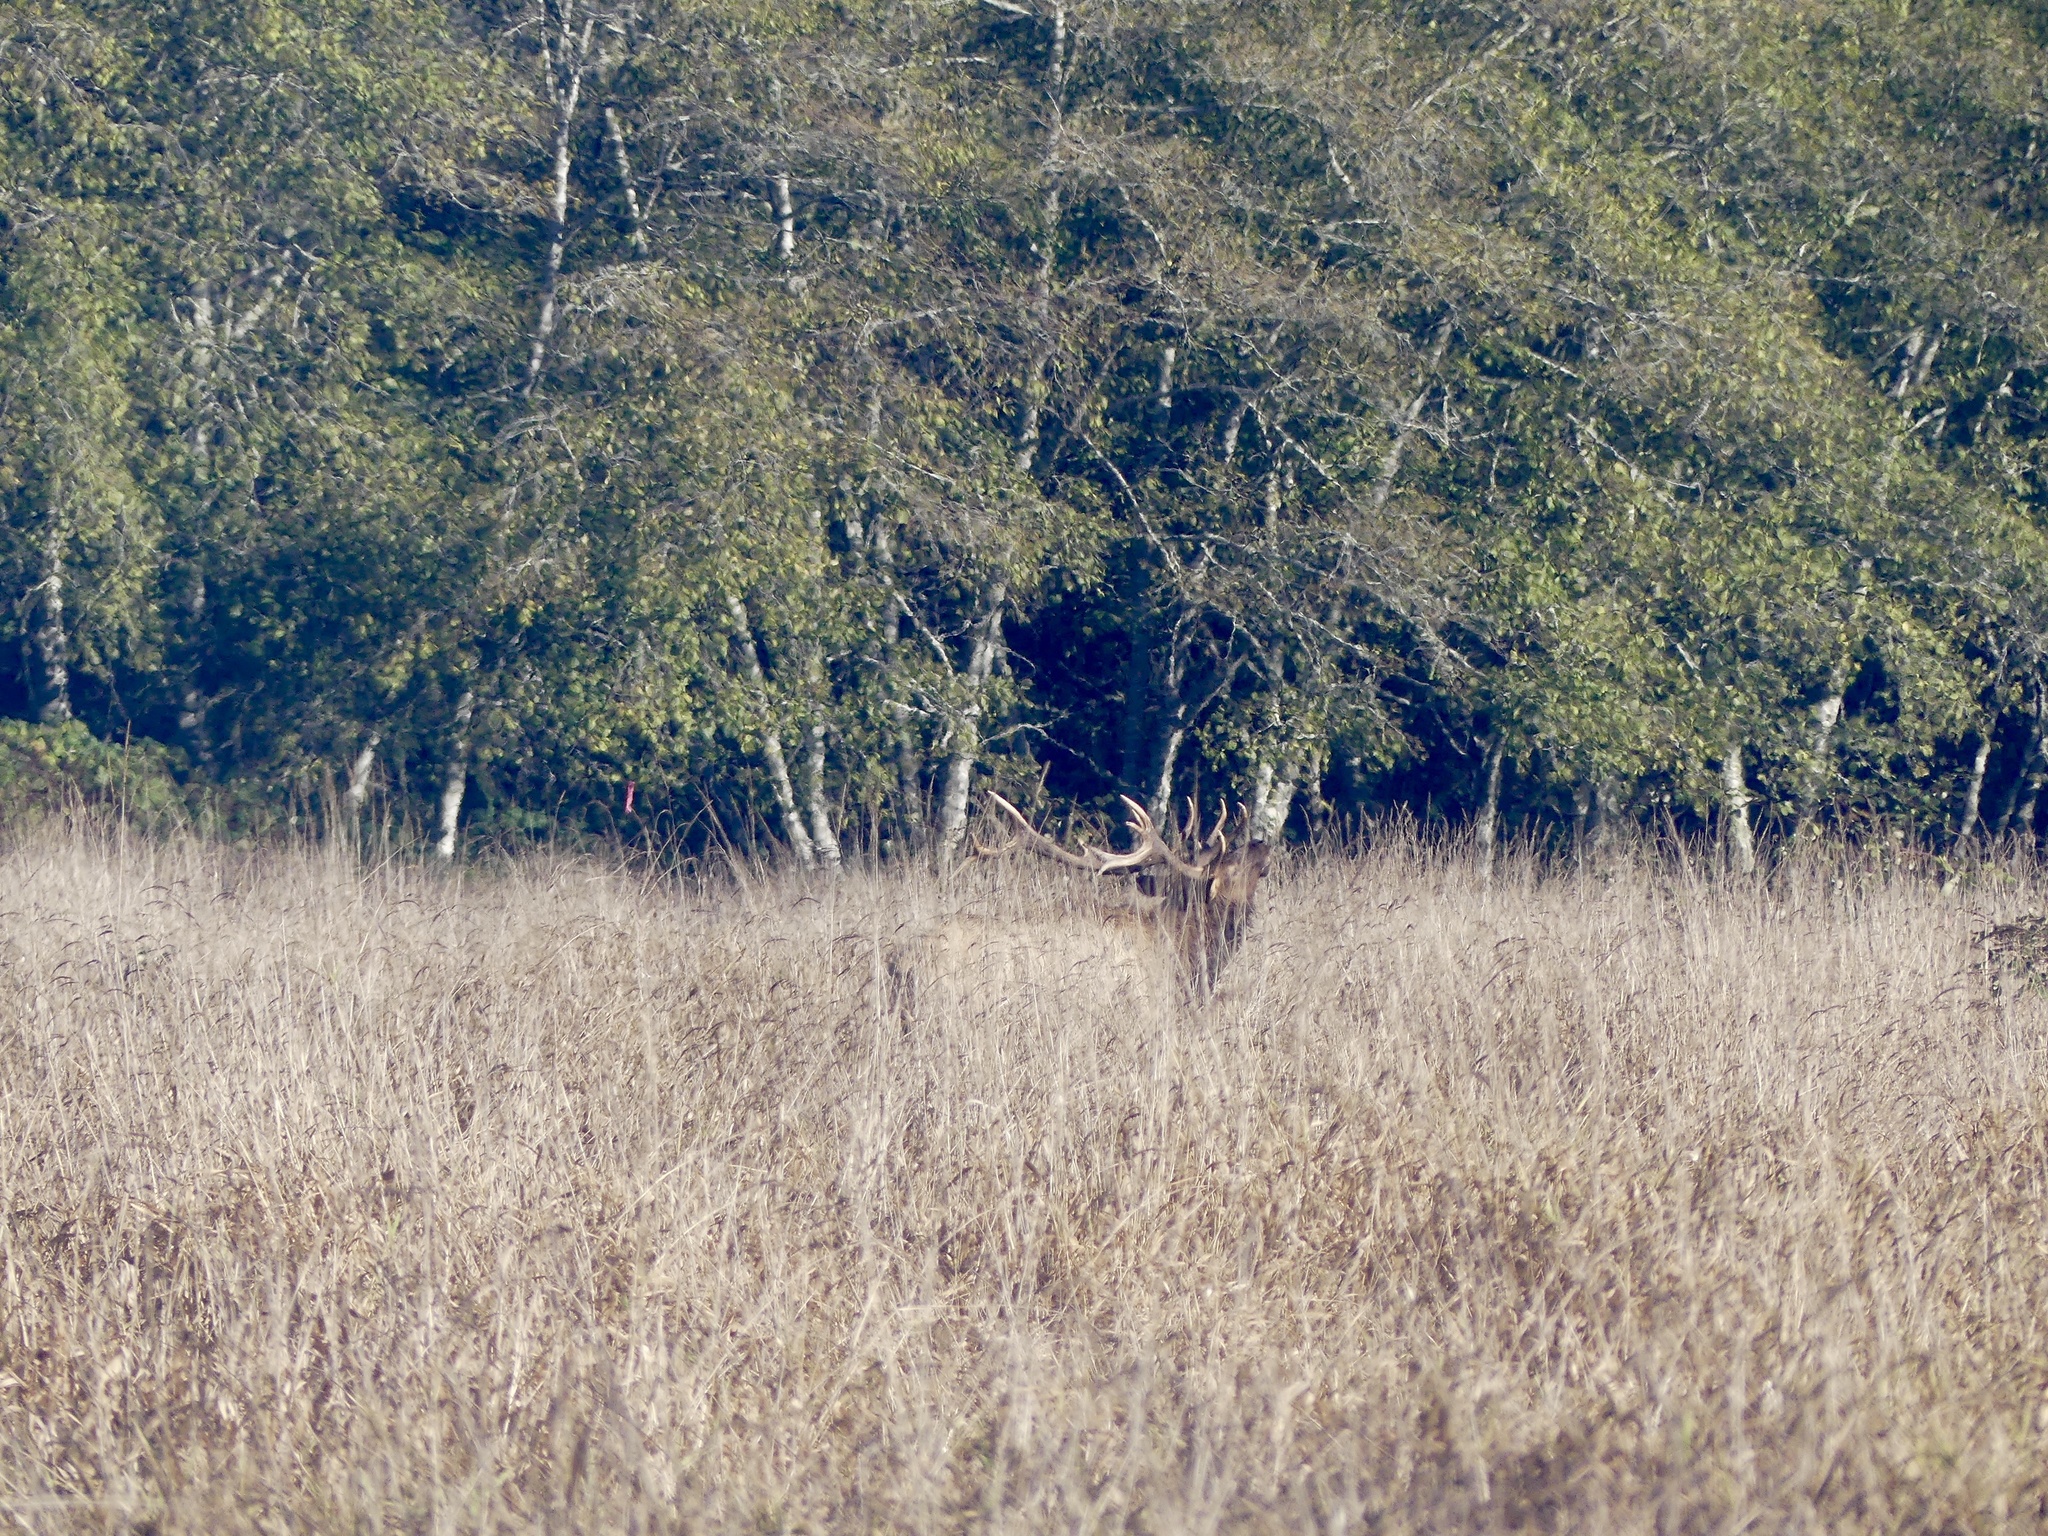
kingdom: Animalia
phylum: Chordata
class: Mammalia
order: Artiodactyla
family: Cervidae
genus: Cervus
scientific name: Cervus elaphus
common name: Red deer
